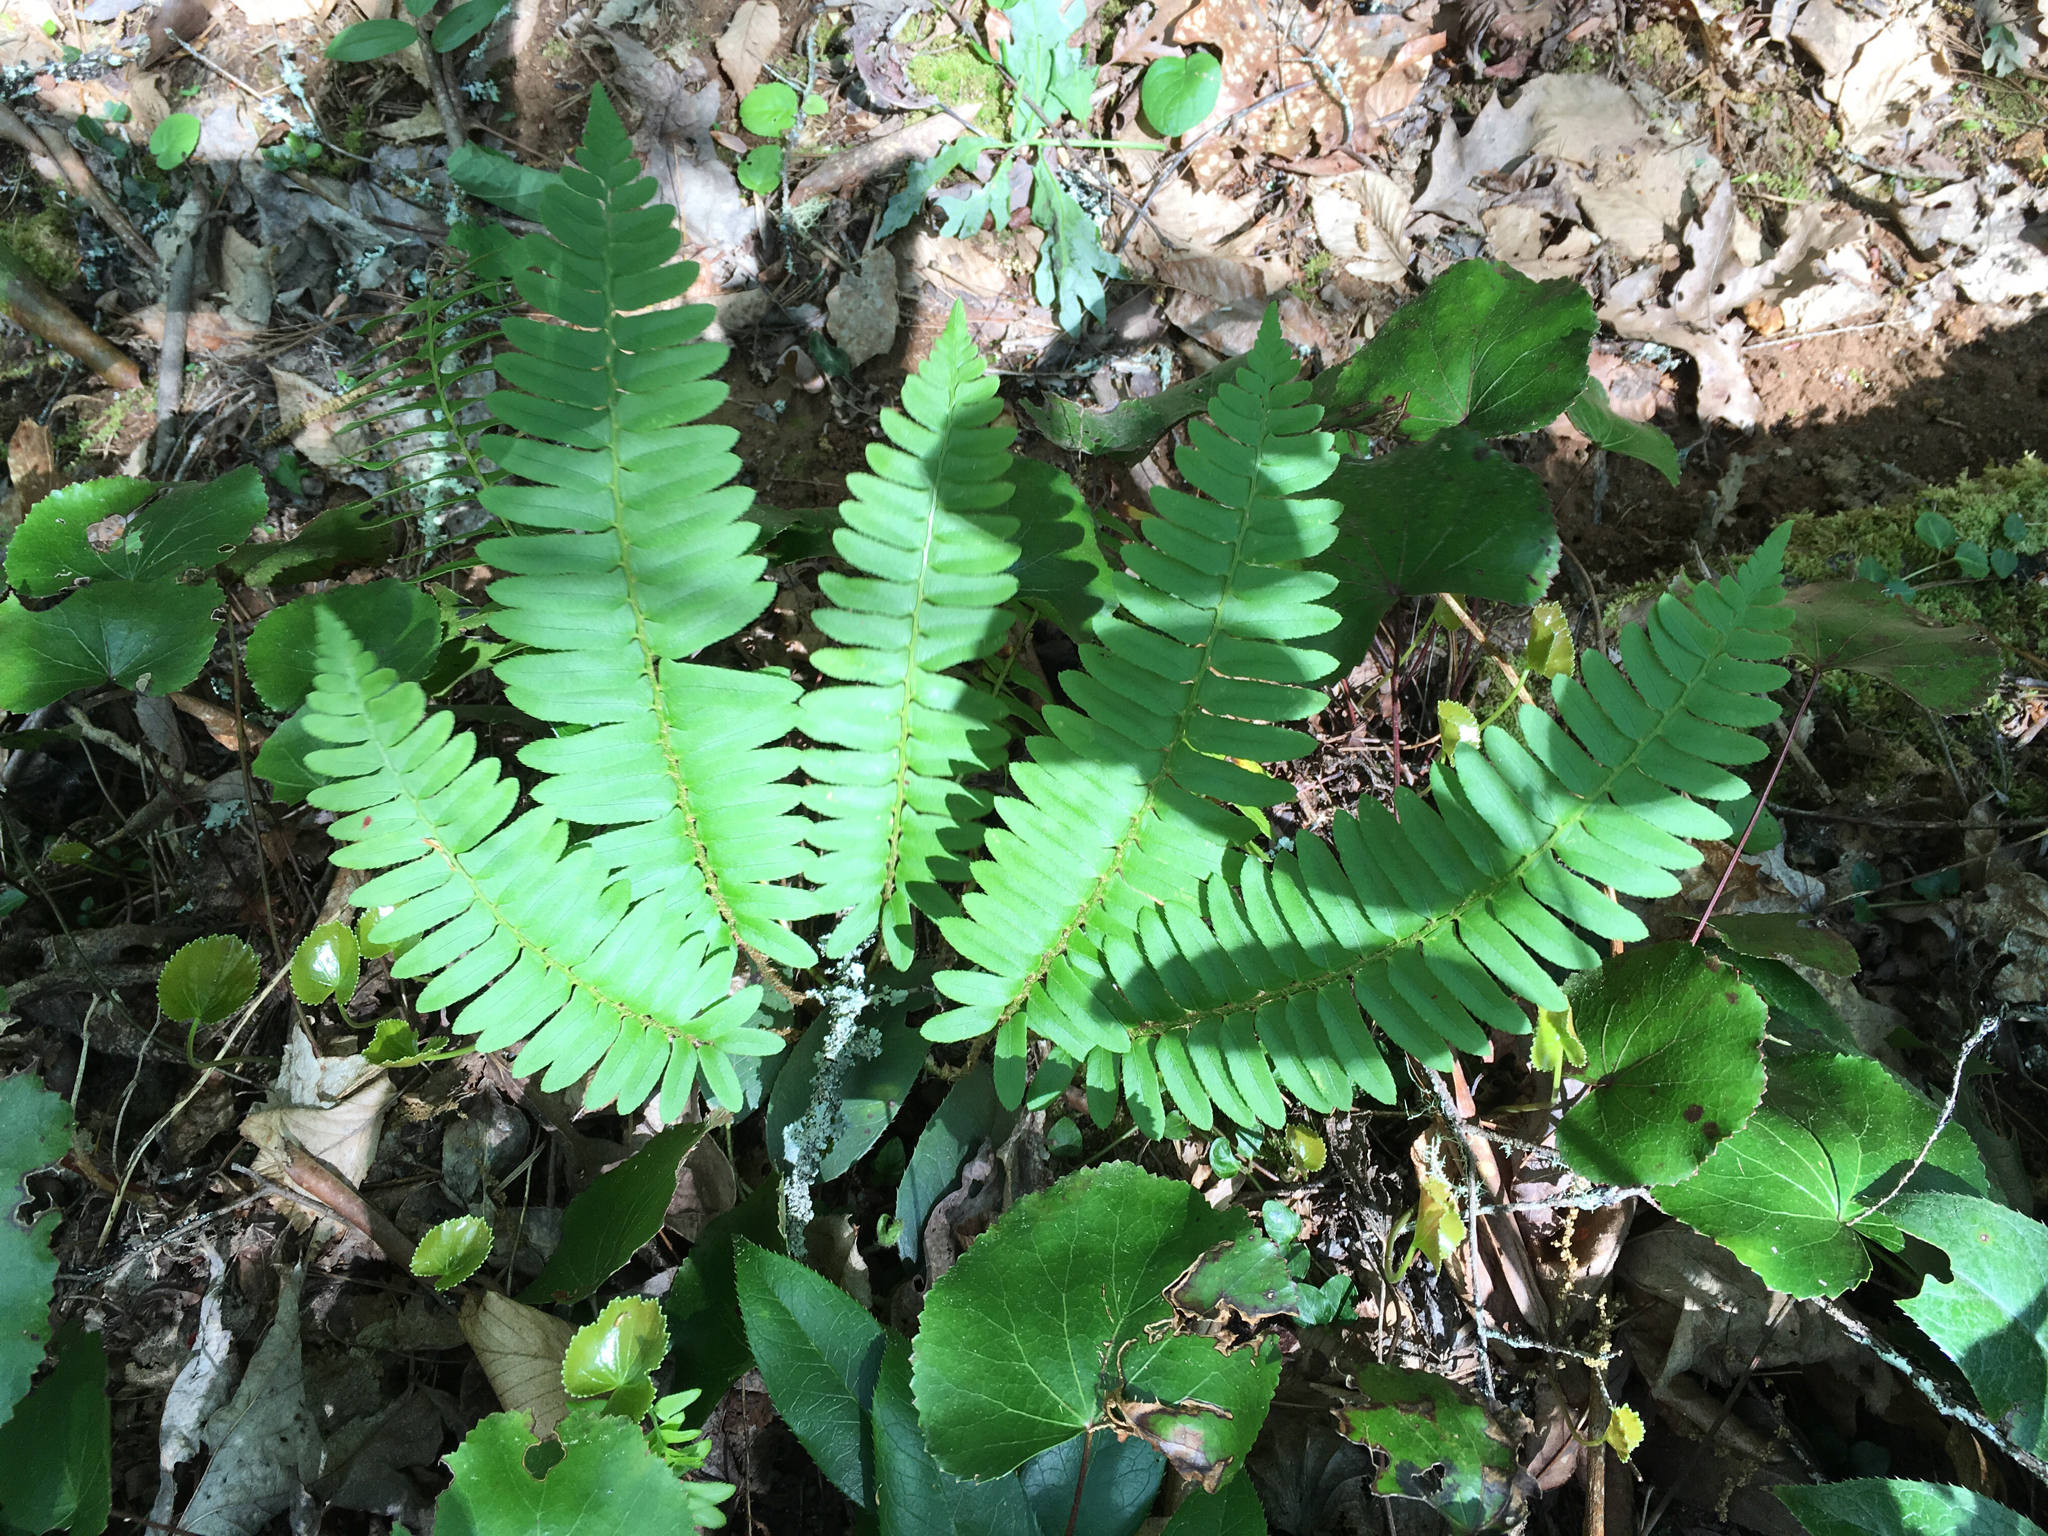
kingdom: Plantae
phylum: Tracheophyta
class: Polypodiopsida
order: Polypodiales
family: Dryopteridaceae
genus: Polystichum
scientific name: Polystichum acrostichoides
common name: Christmas fern
